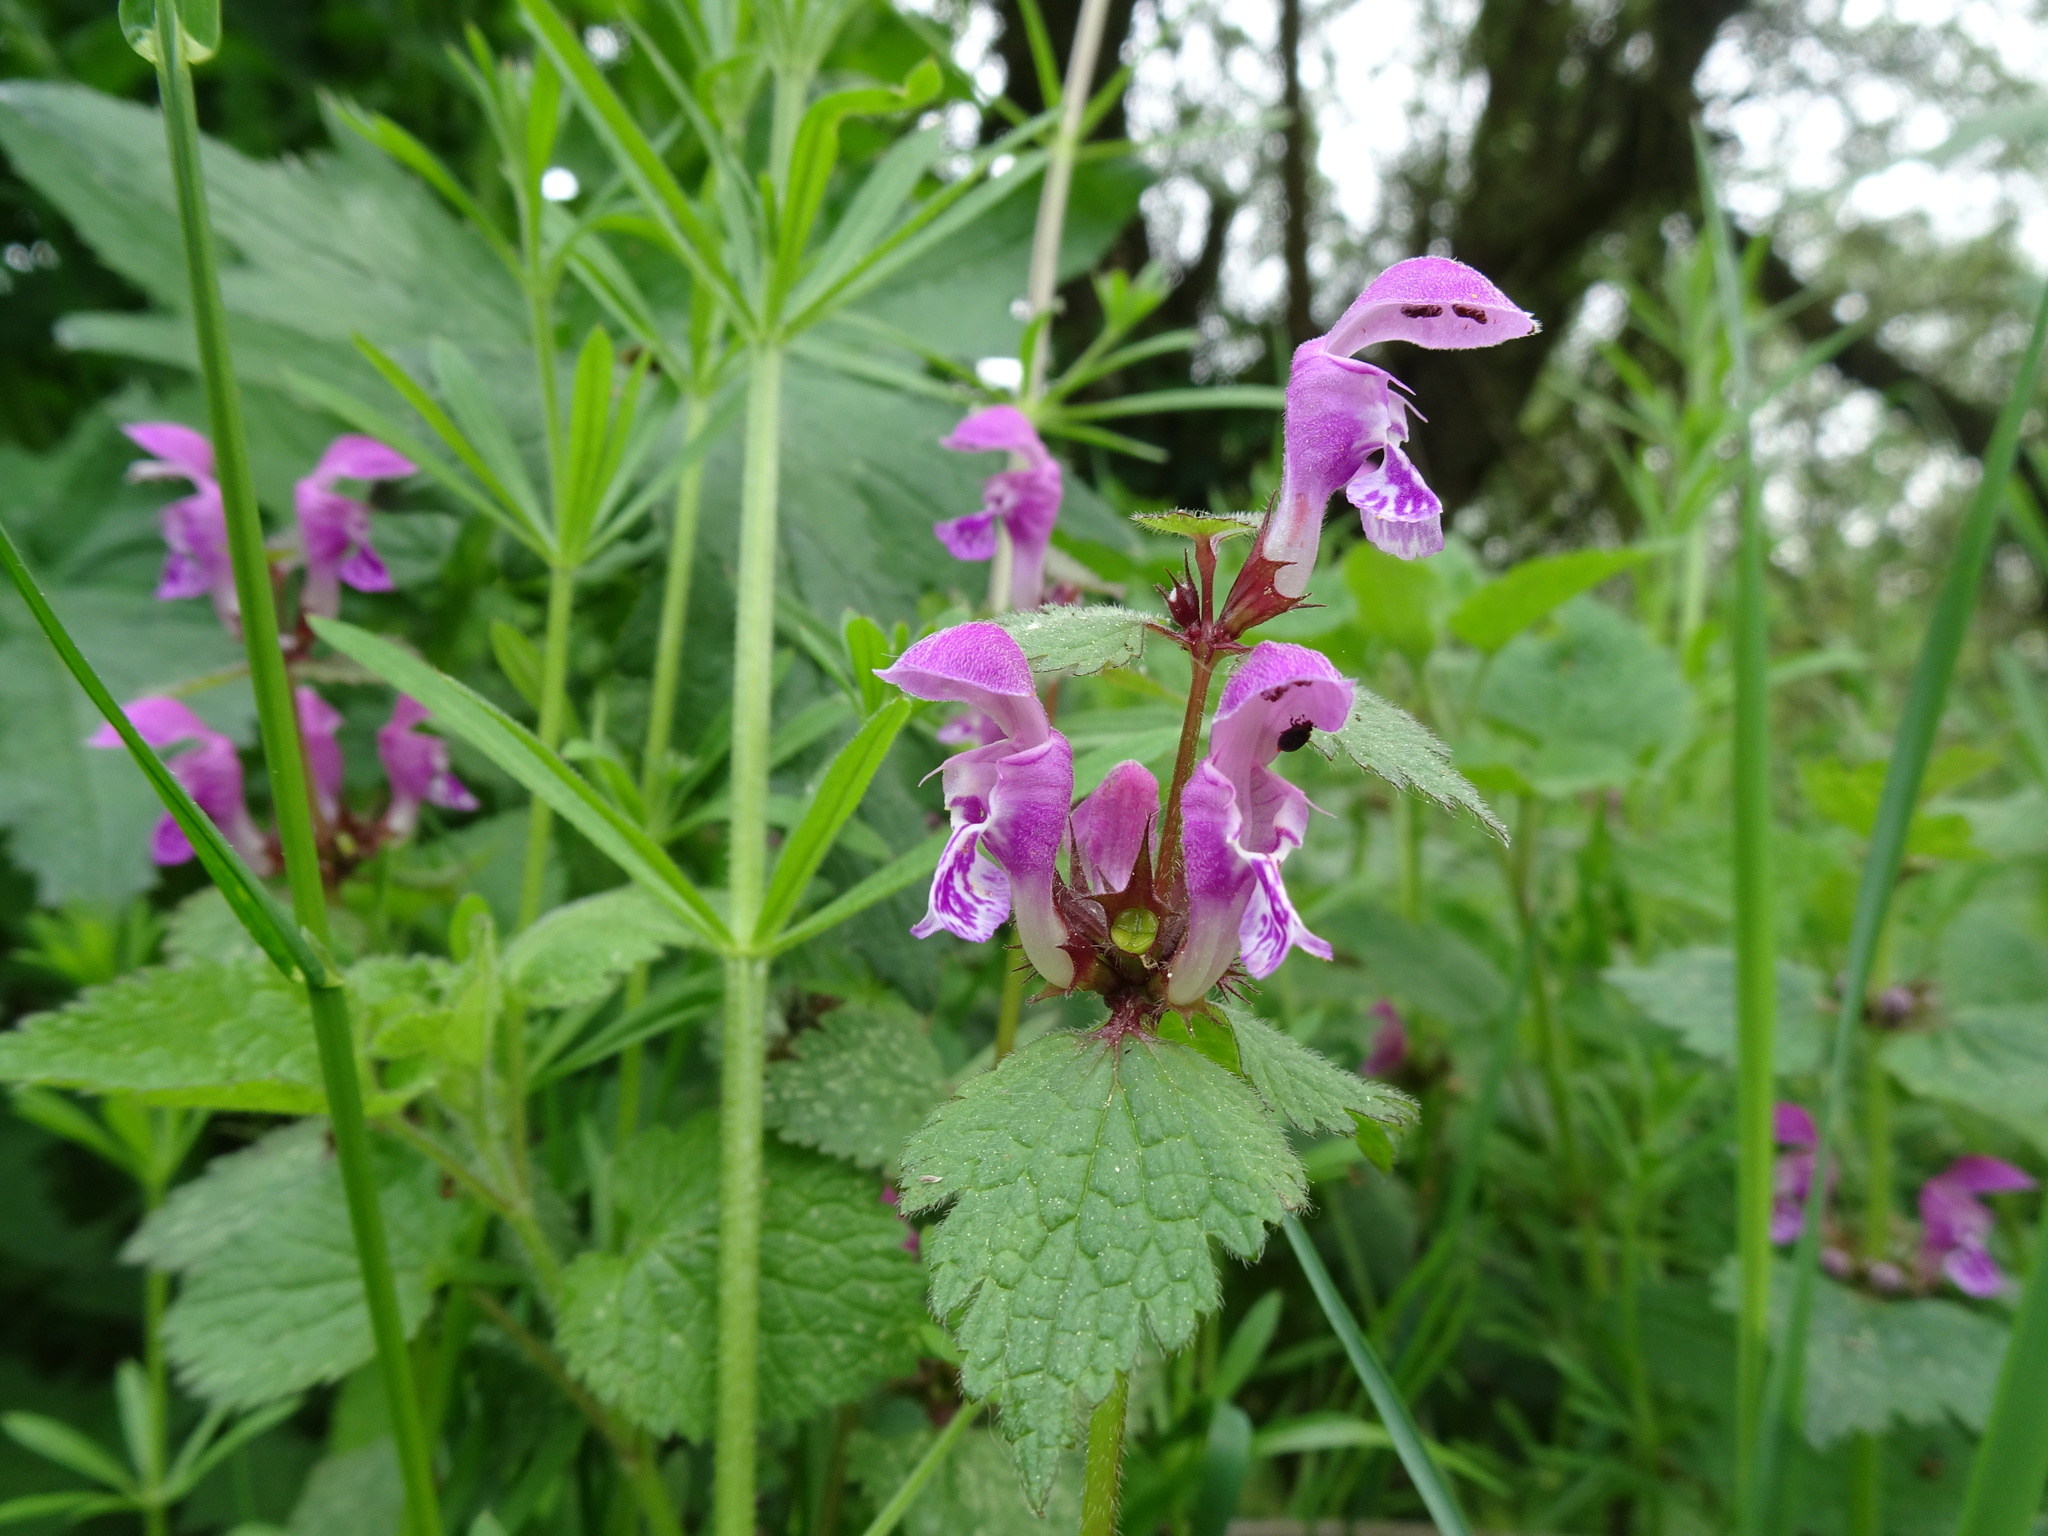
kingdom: Plantae
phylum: Tracheophyta
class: Magnoliopsida
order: Lamiales
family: Lamiaceae
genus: Lamium
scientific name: Lamium maculatum
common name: Spotted dead-nettle
